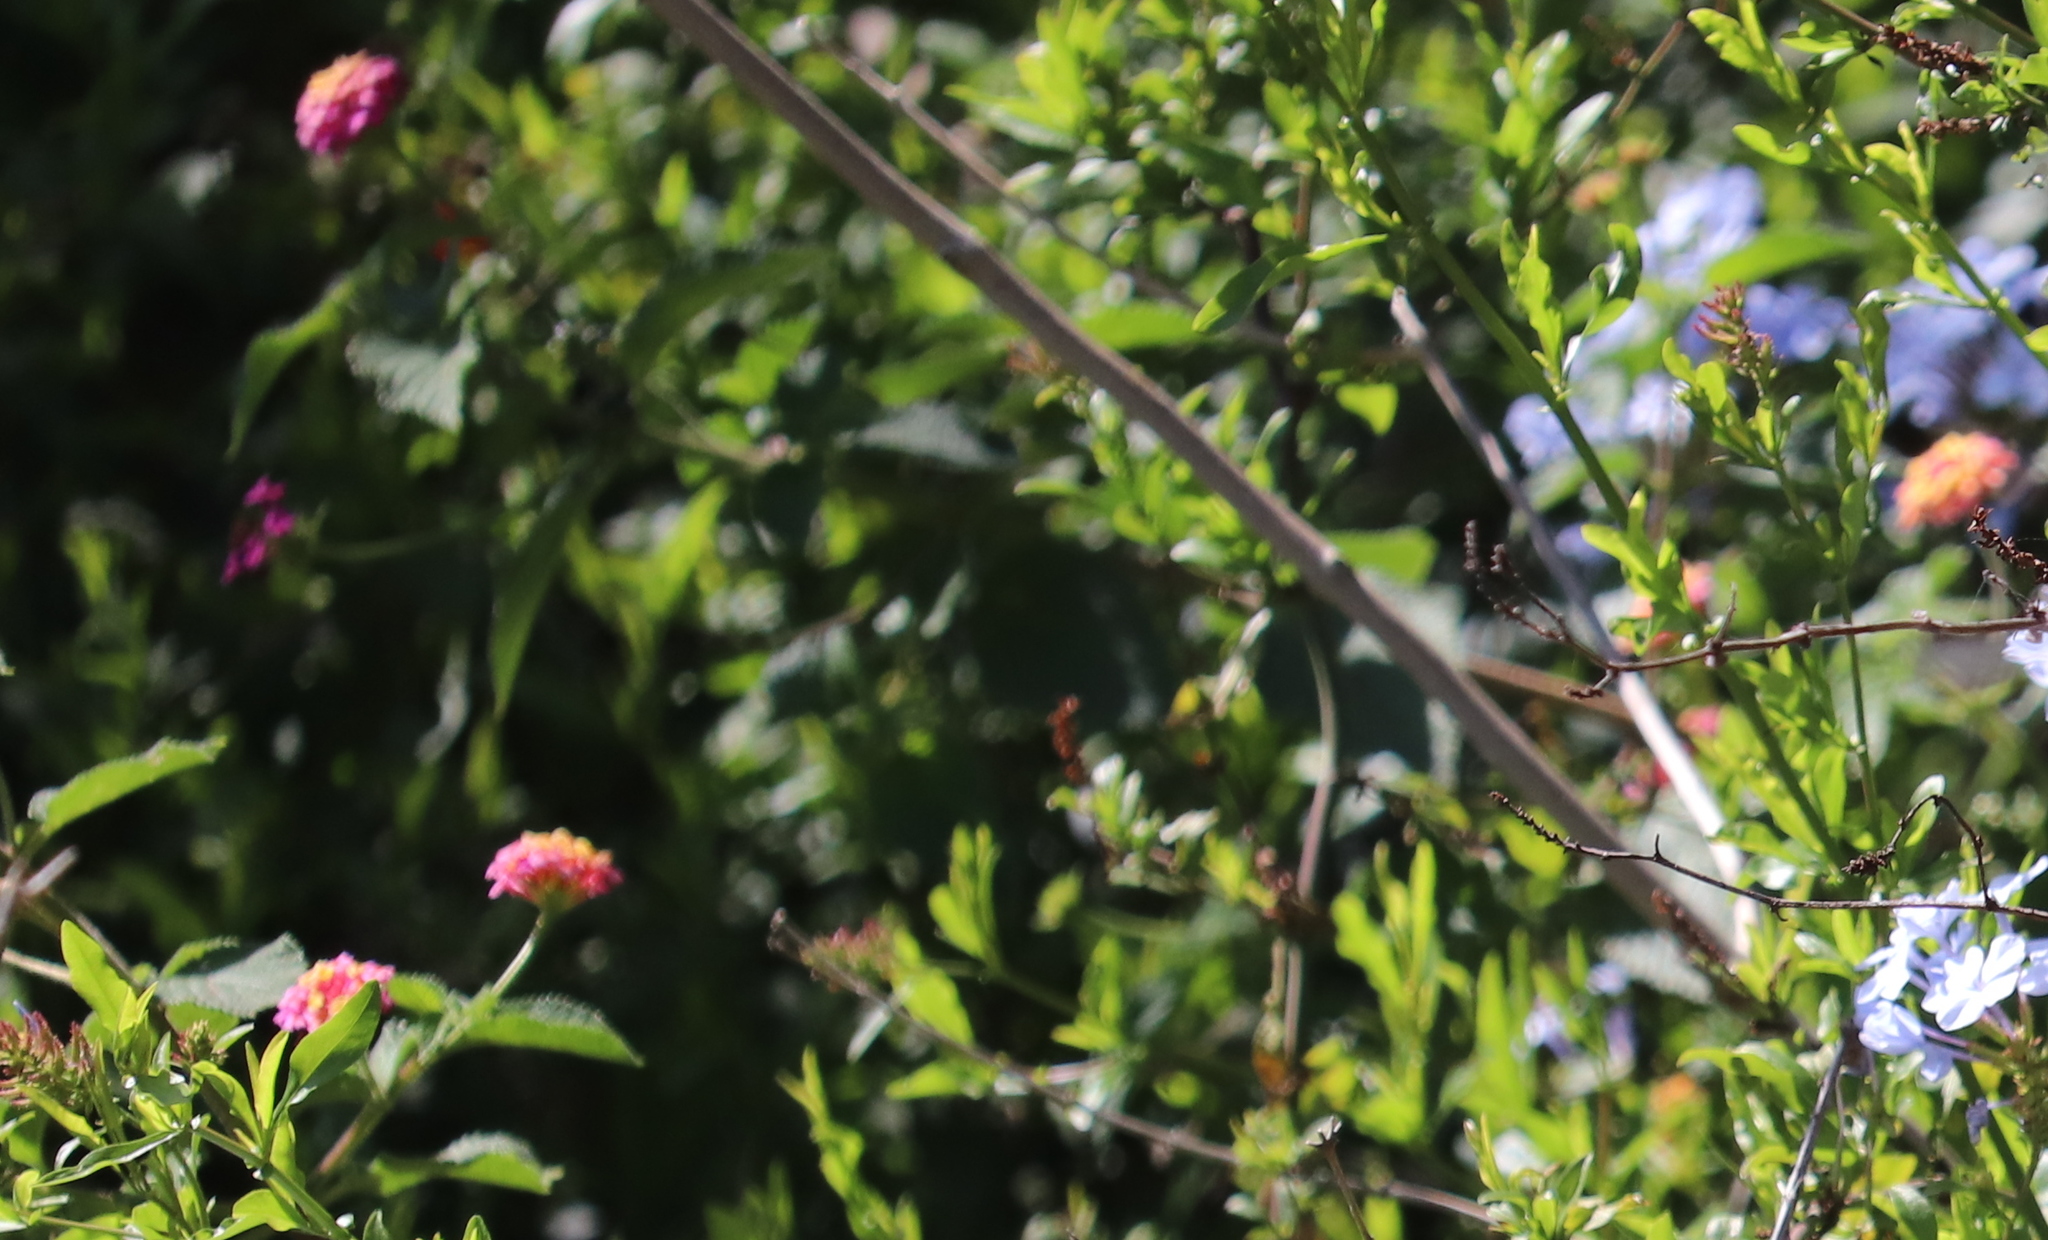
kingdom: Plantae
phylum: Tracheophyta
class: Magnoliopsida
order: Lamiales
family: Verbenaceae
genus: Lantana
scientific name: Lantana camara
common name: Lantana
